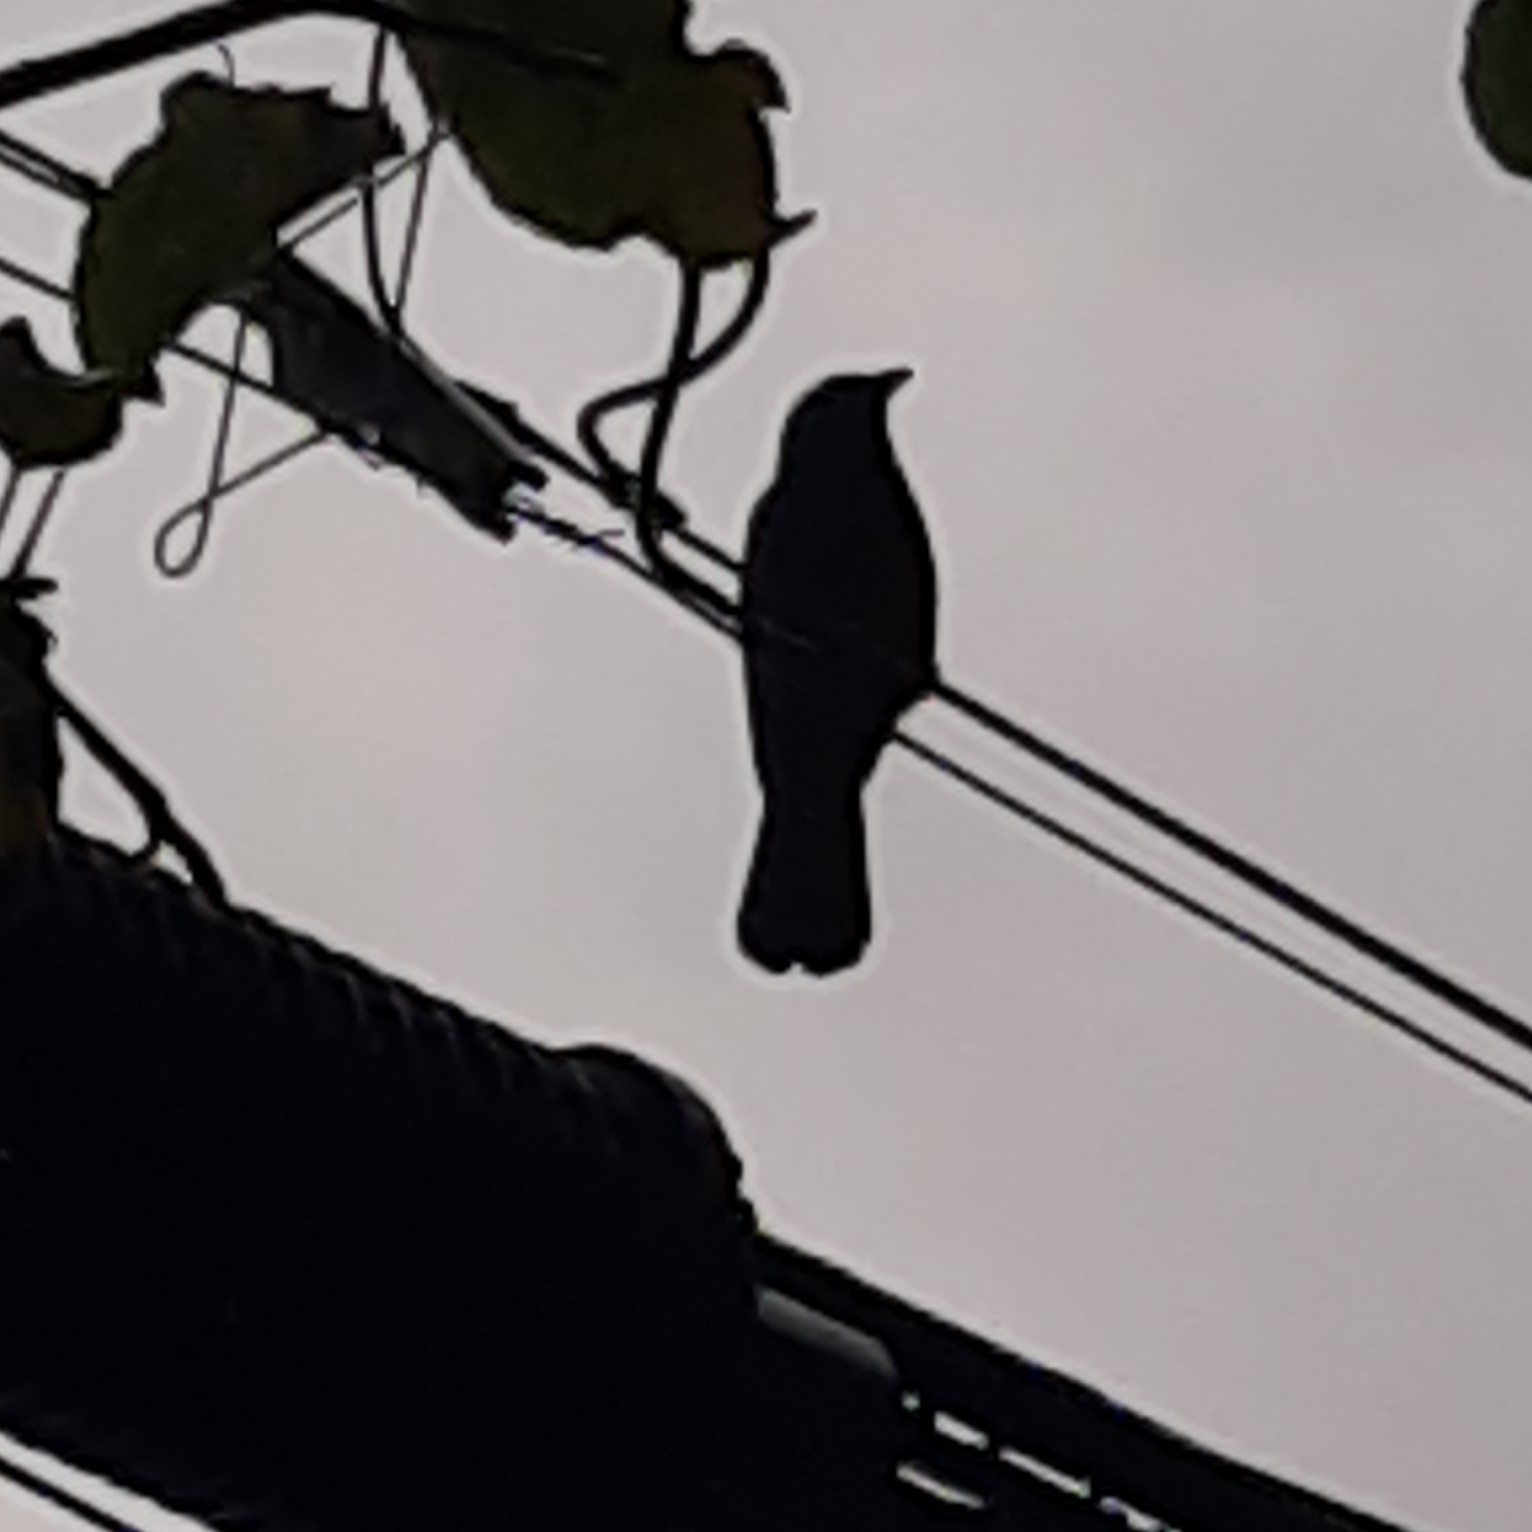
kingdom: Animalia
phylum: Chordata
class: Aves
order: Passeriformes
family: Corvidae
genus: Corvus
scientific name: Corvus brachyrhynchos
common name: American crow
